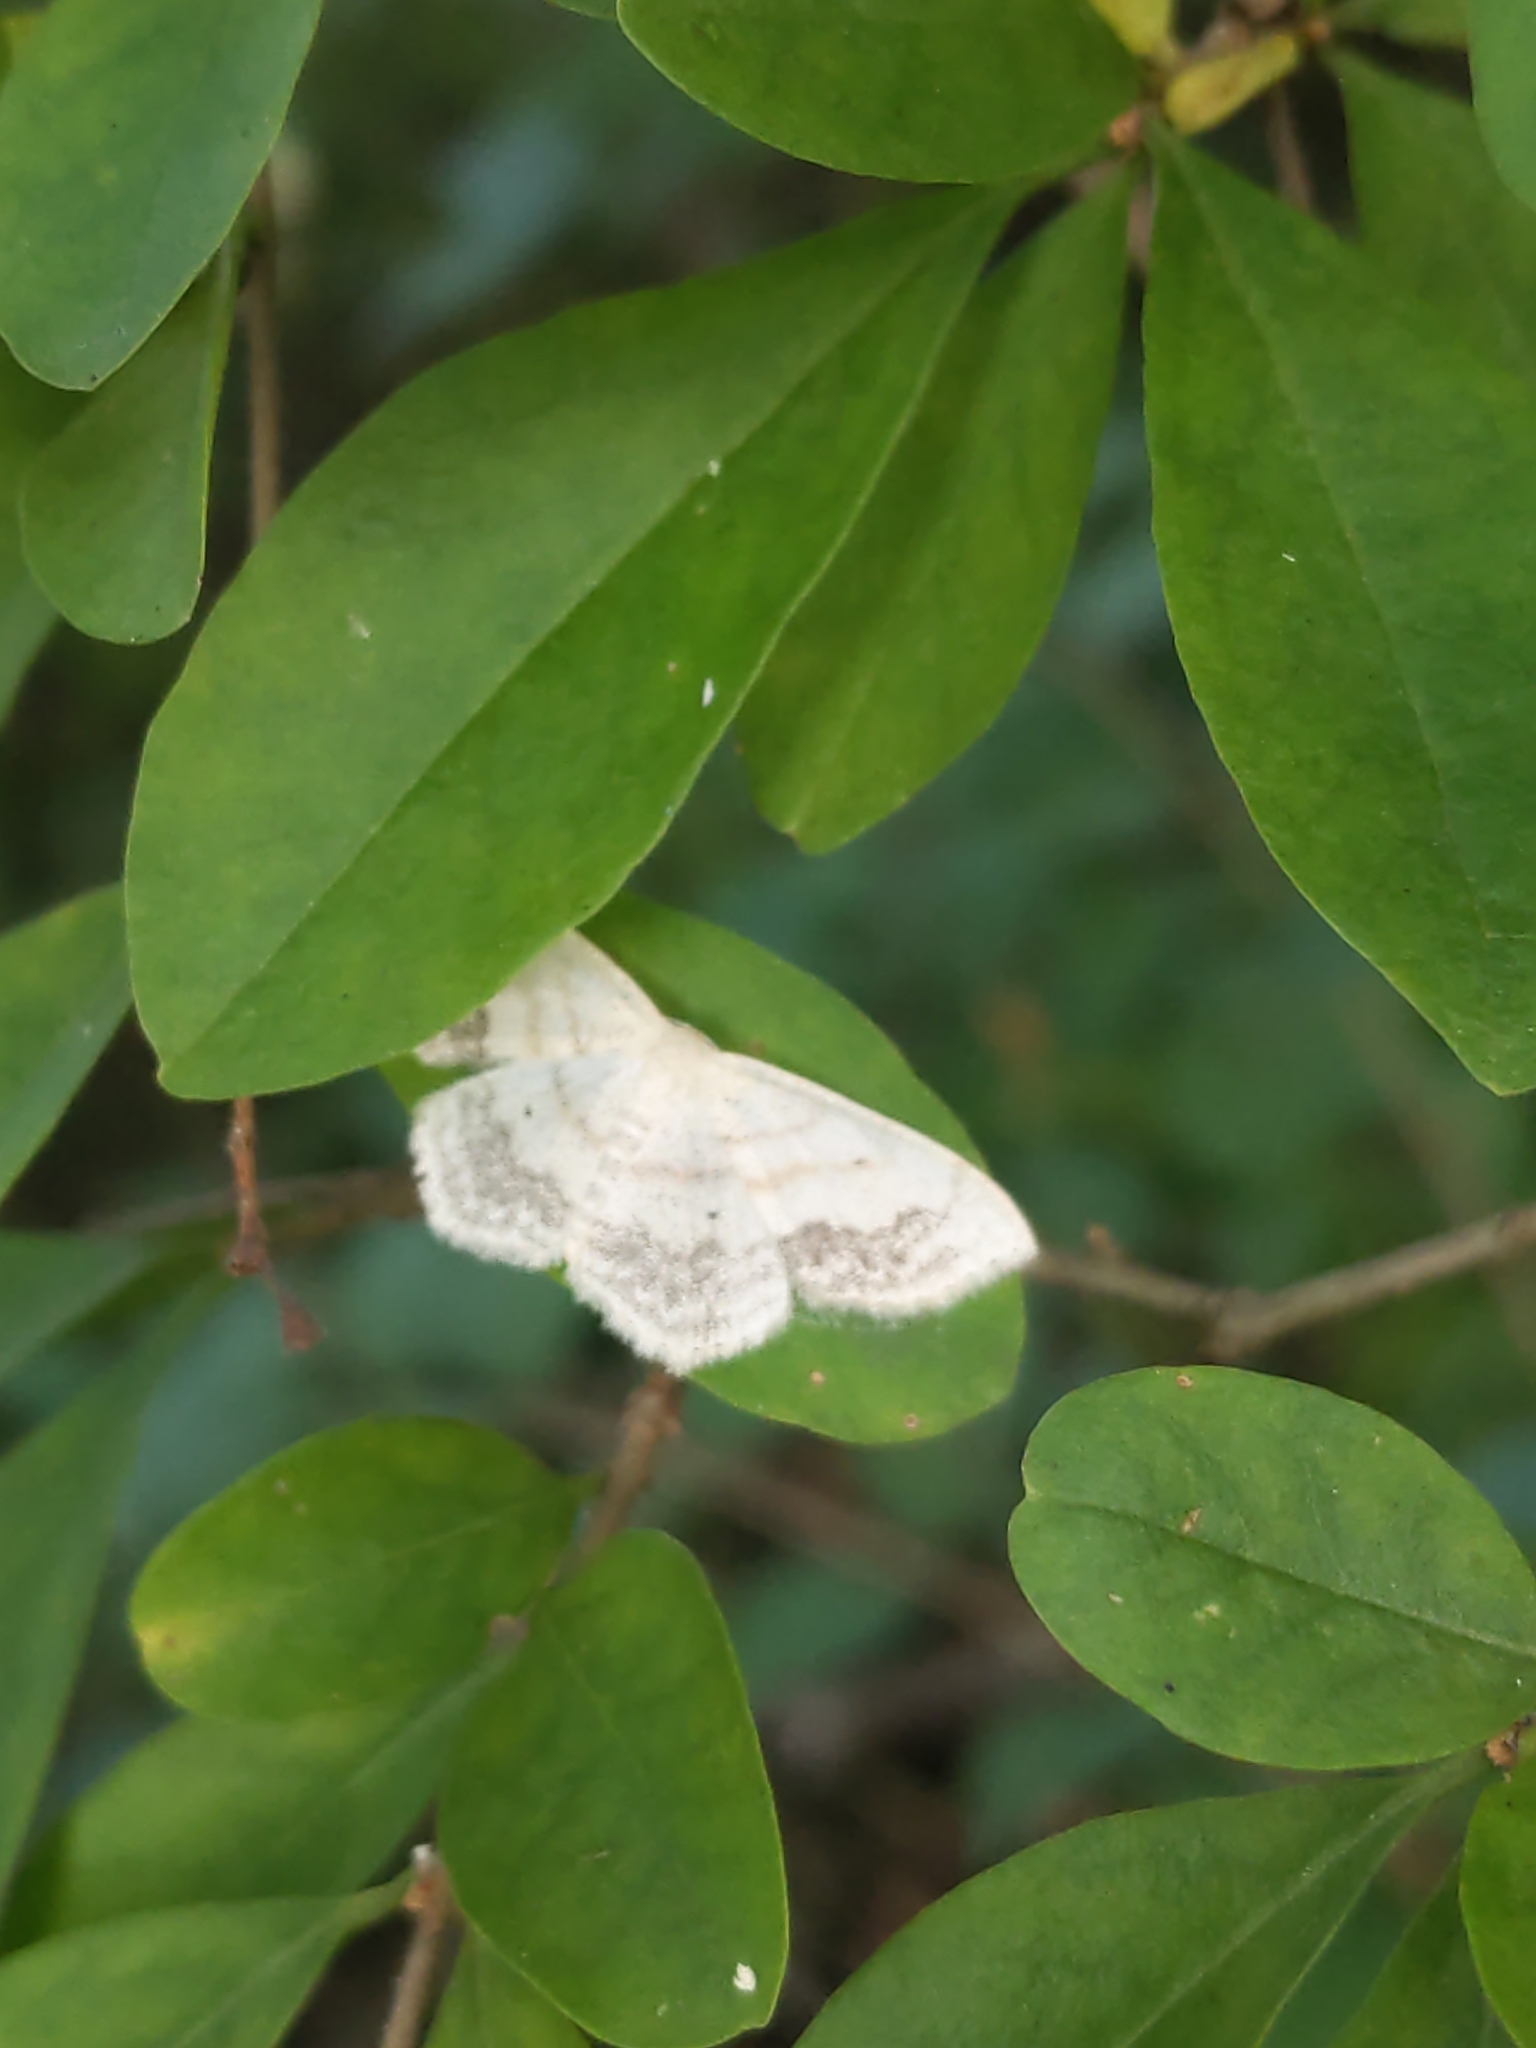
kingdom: Animalia
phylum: Arthropoda
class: Insecta
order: Lepidoptera
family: Geometridae
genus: Scopula
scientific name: Scopula limboundata
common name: Large lace border
